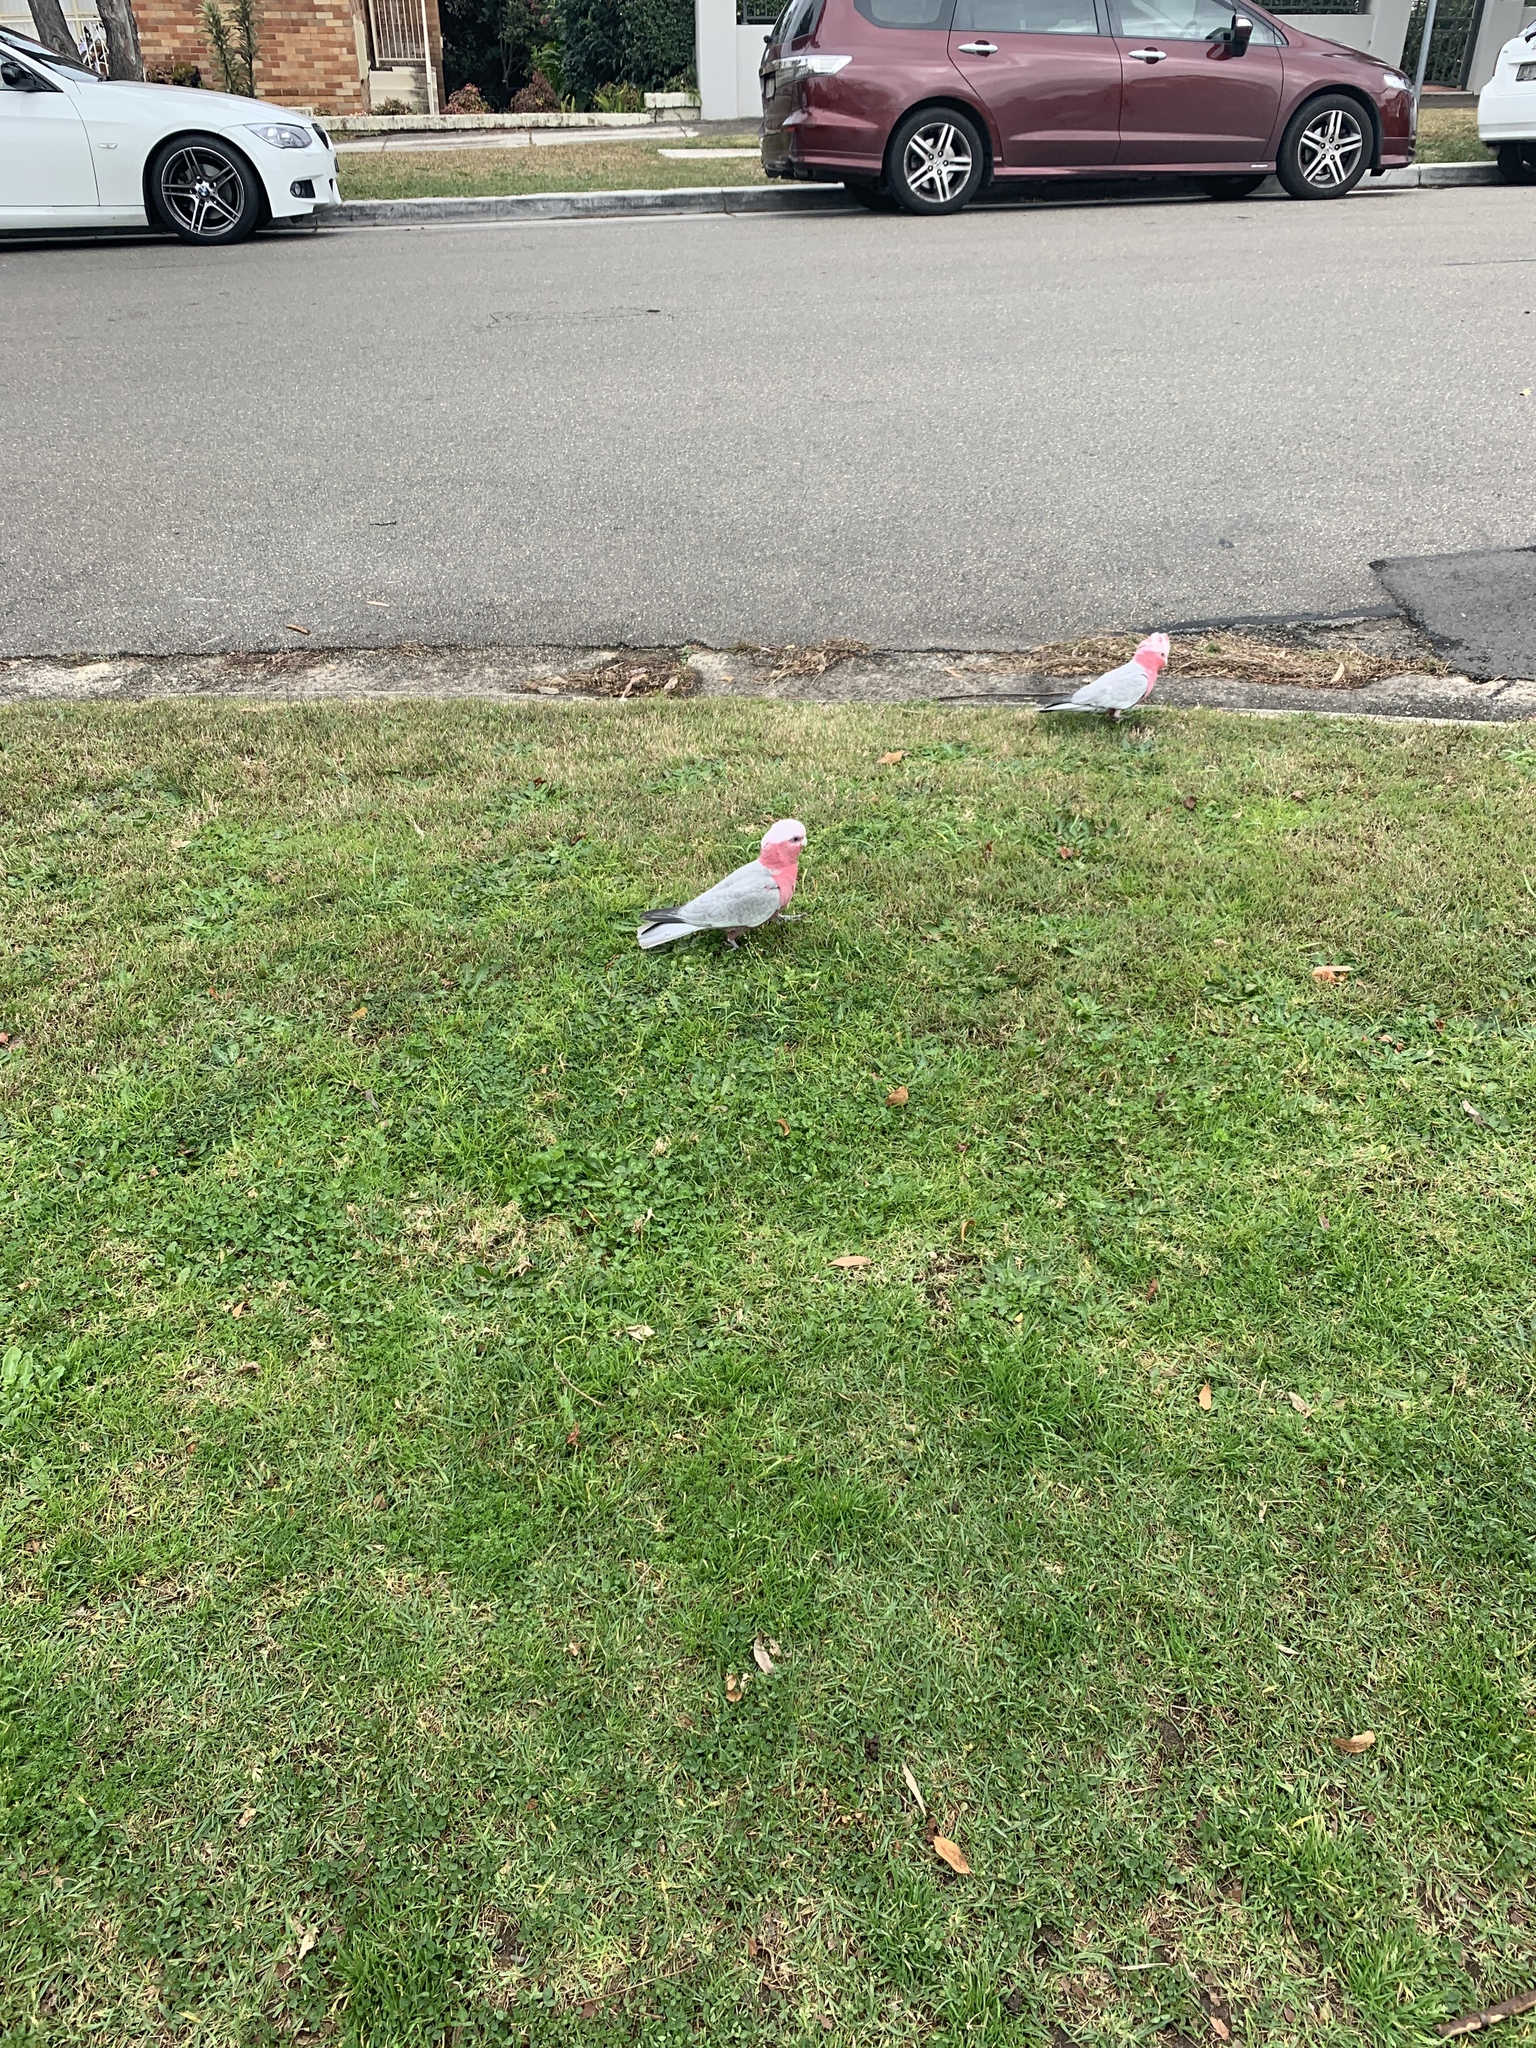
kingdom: Animalia
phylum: Chordata
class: Aves
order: Psittaciformes
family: Psittacidae
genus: Eolophus
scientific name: Eolophus roseicapilla
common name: Galah
